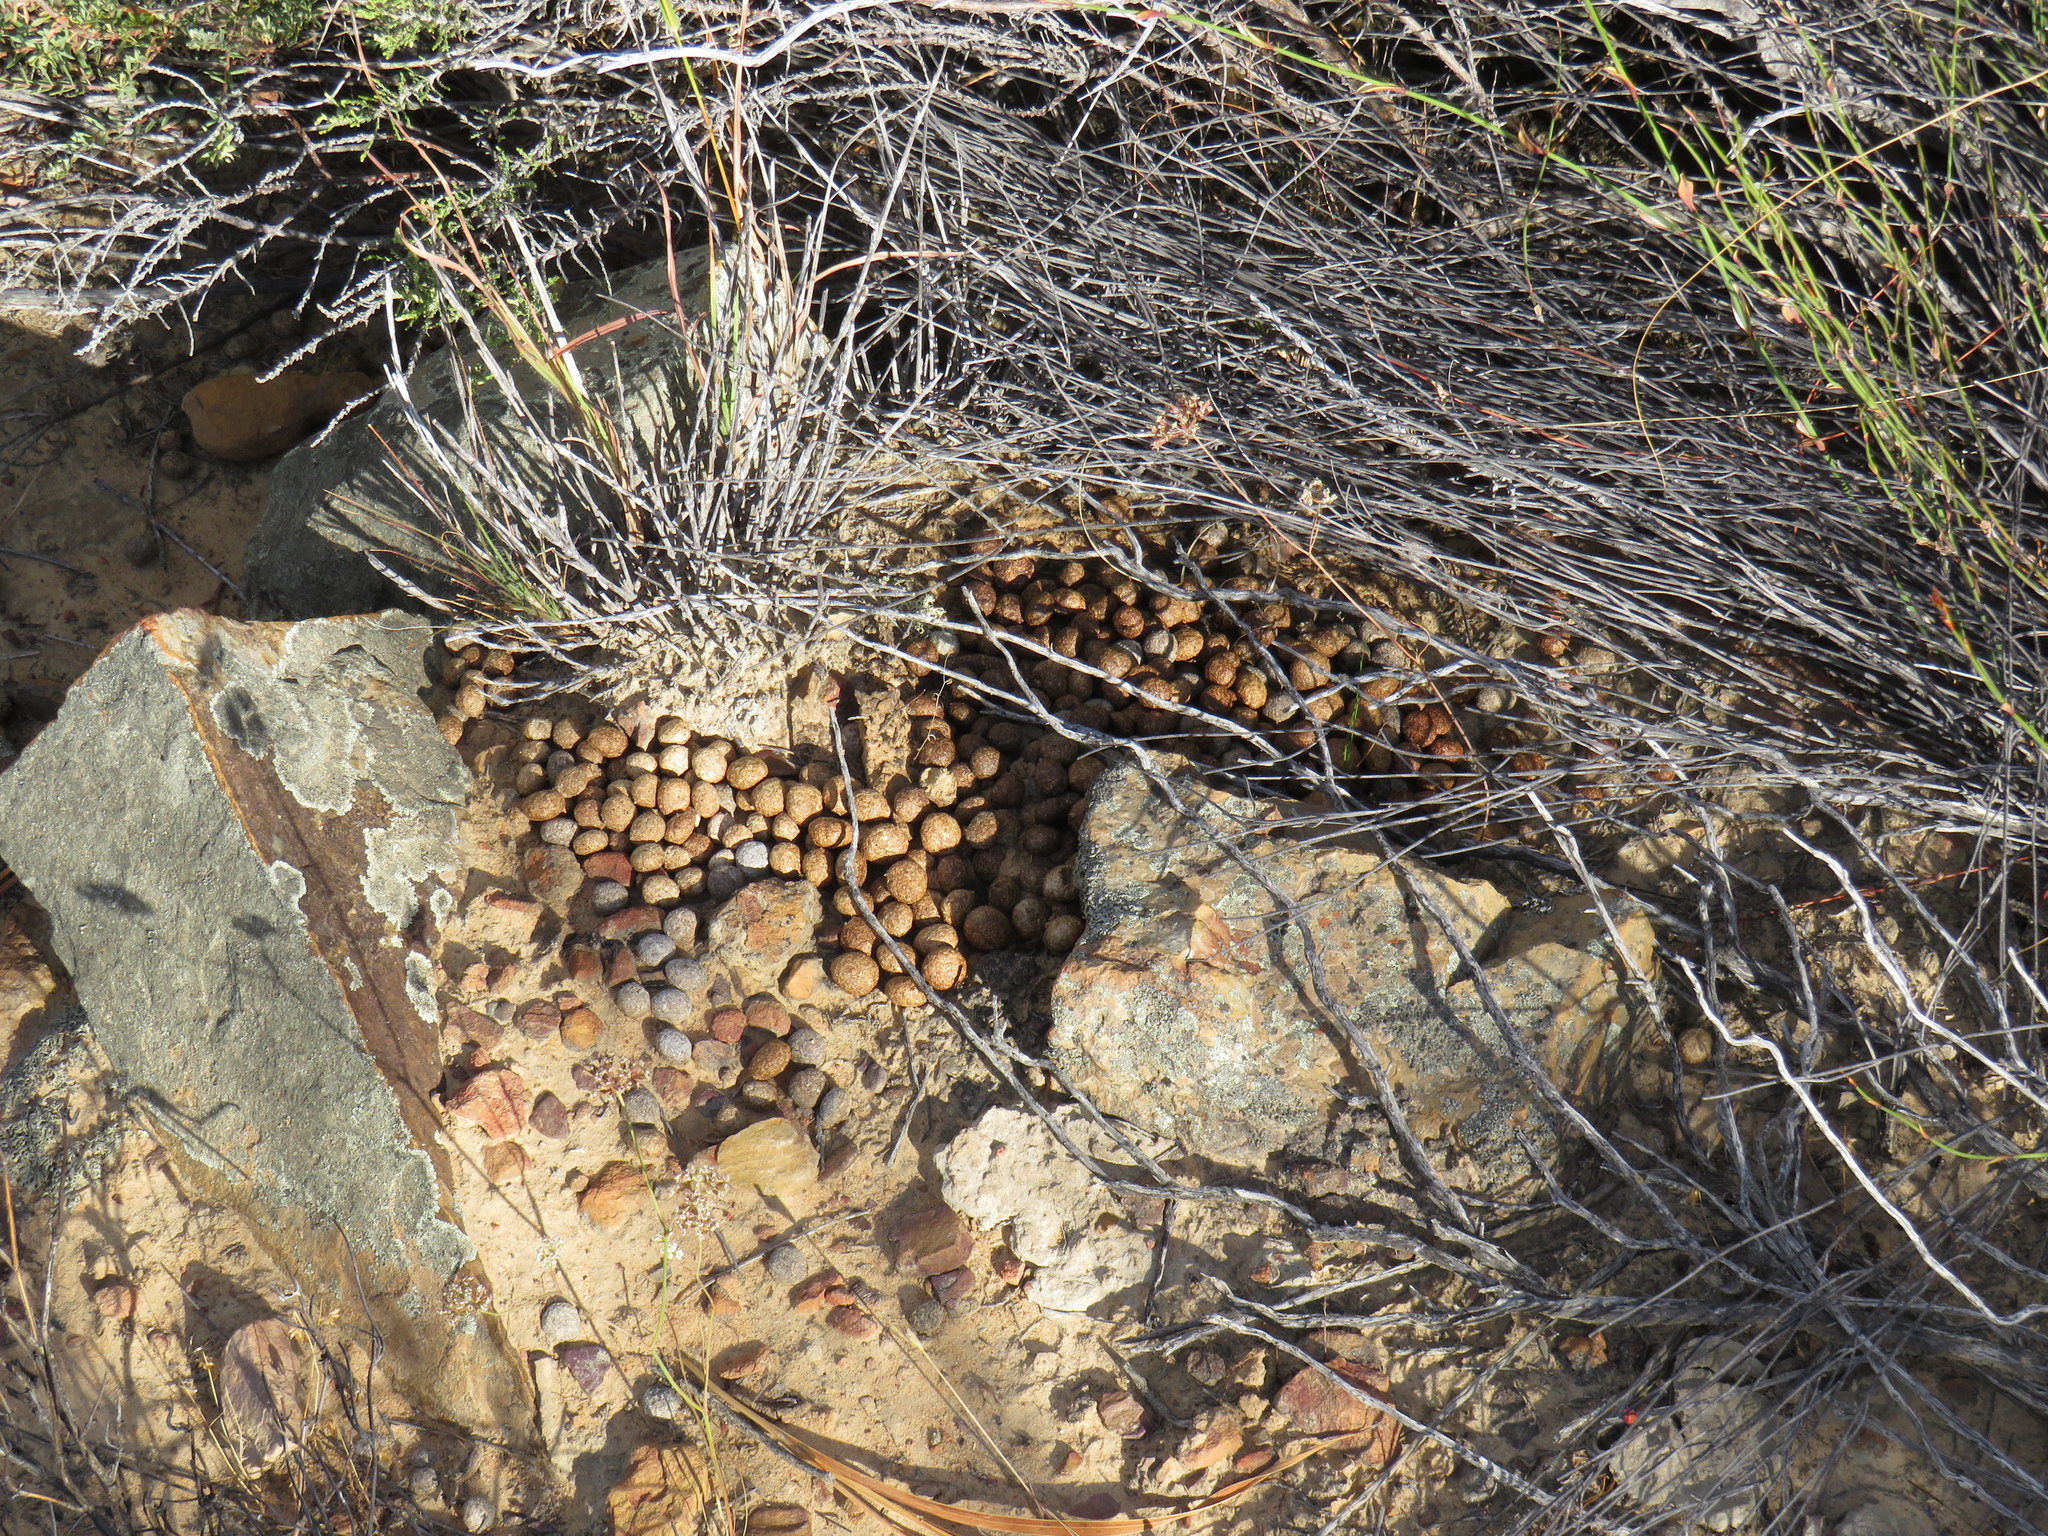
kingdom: Animalia
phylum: Chordata
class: Mammalia
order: Lagomorpha
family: Leporidae
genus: Pronolagus
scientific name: Pronolagus saundersiae
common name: Hewitt's red rock hare
